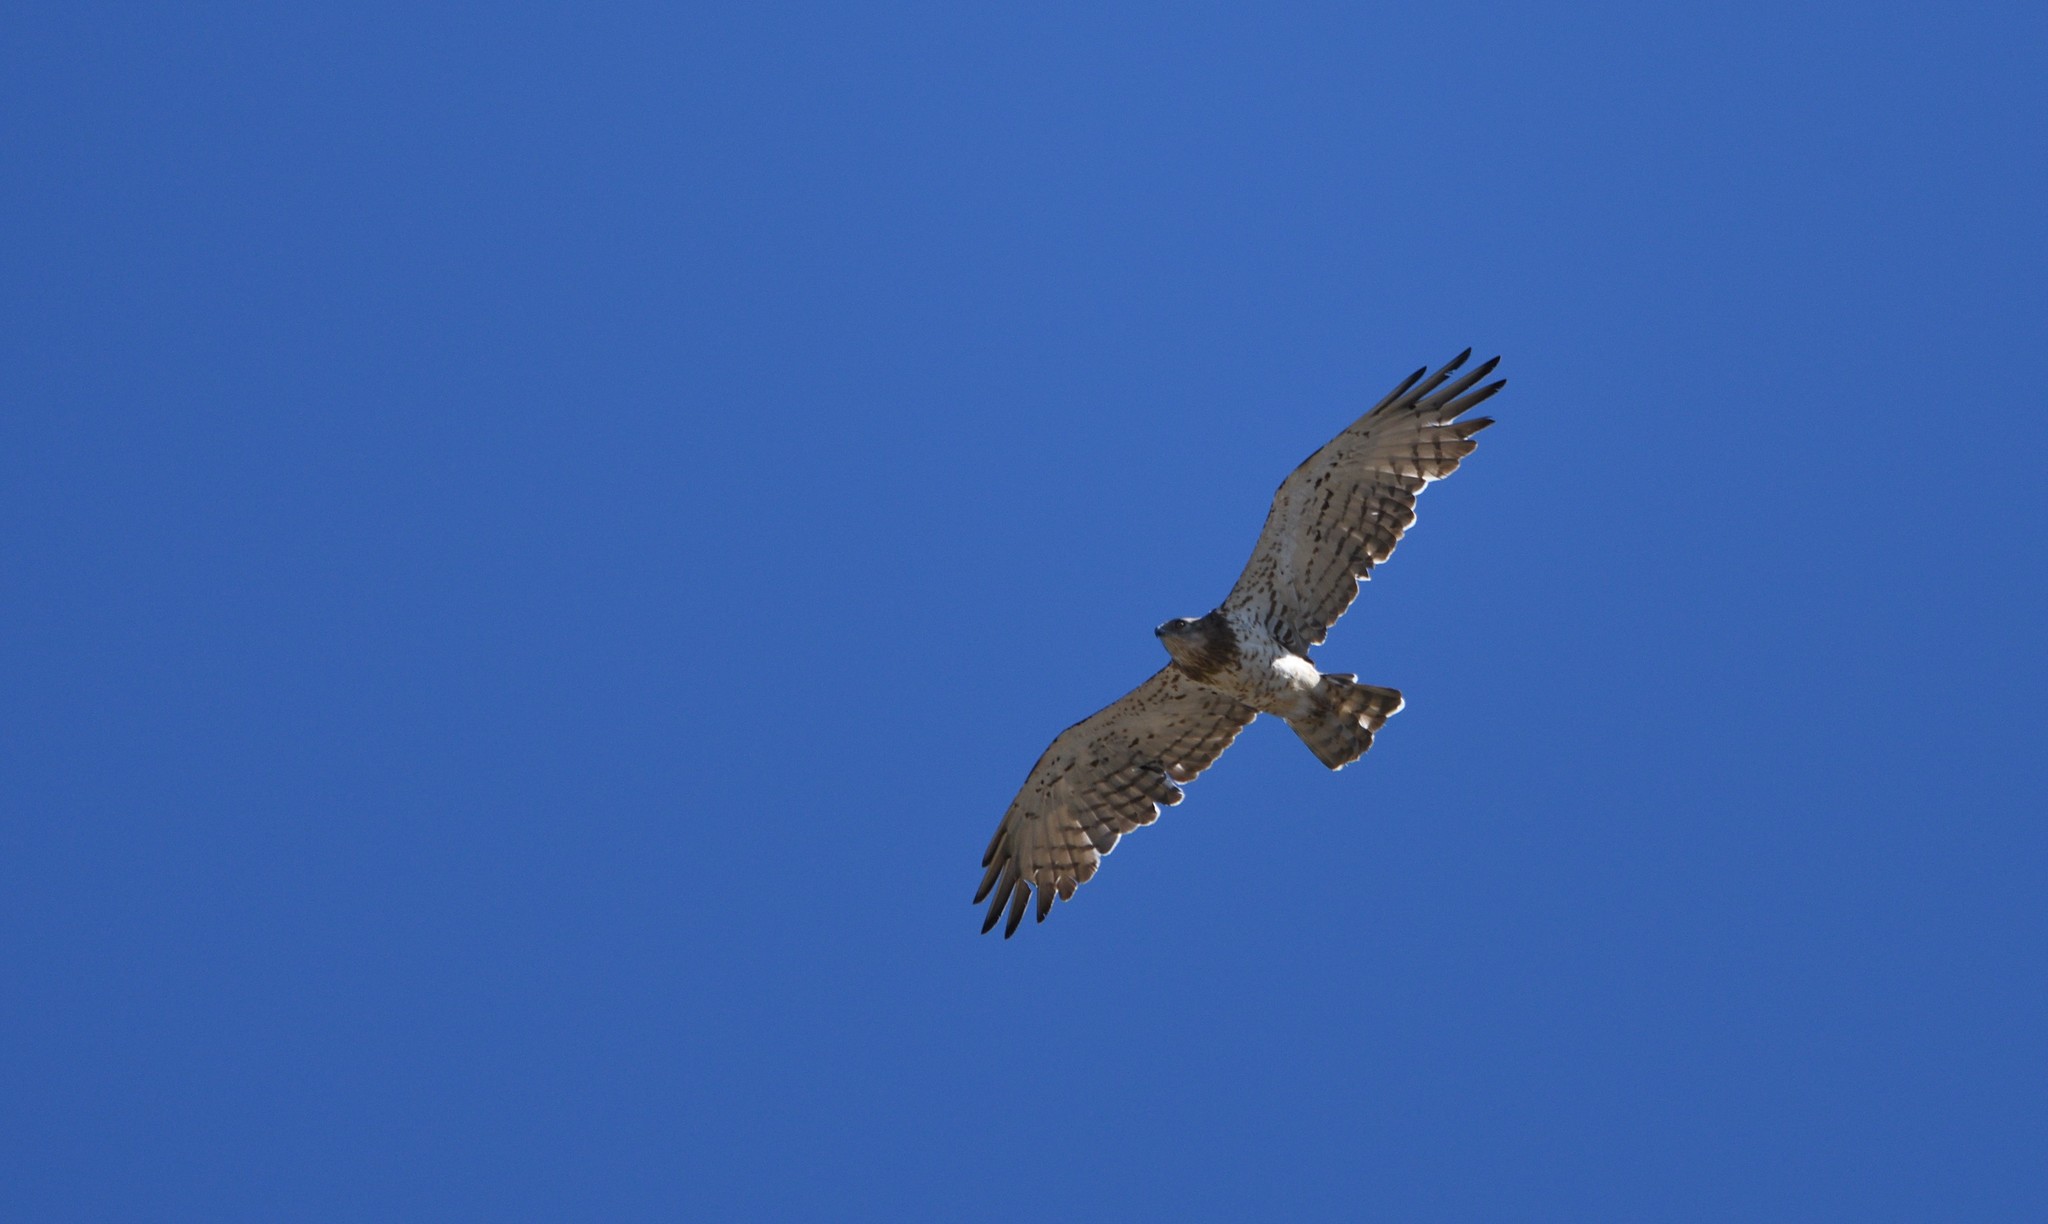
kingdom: Animalia
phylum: Chordata
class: Aves
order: Accipitriformes
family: Accipitridae
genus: Circaetus
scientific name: Circaetus gallicus
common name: Short-toed snake eagle
